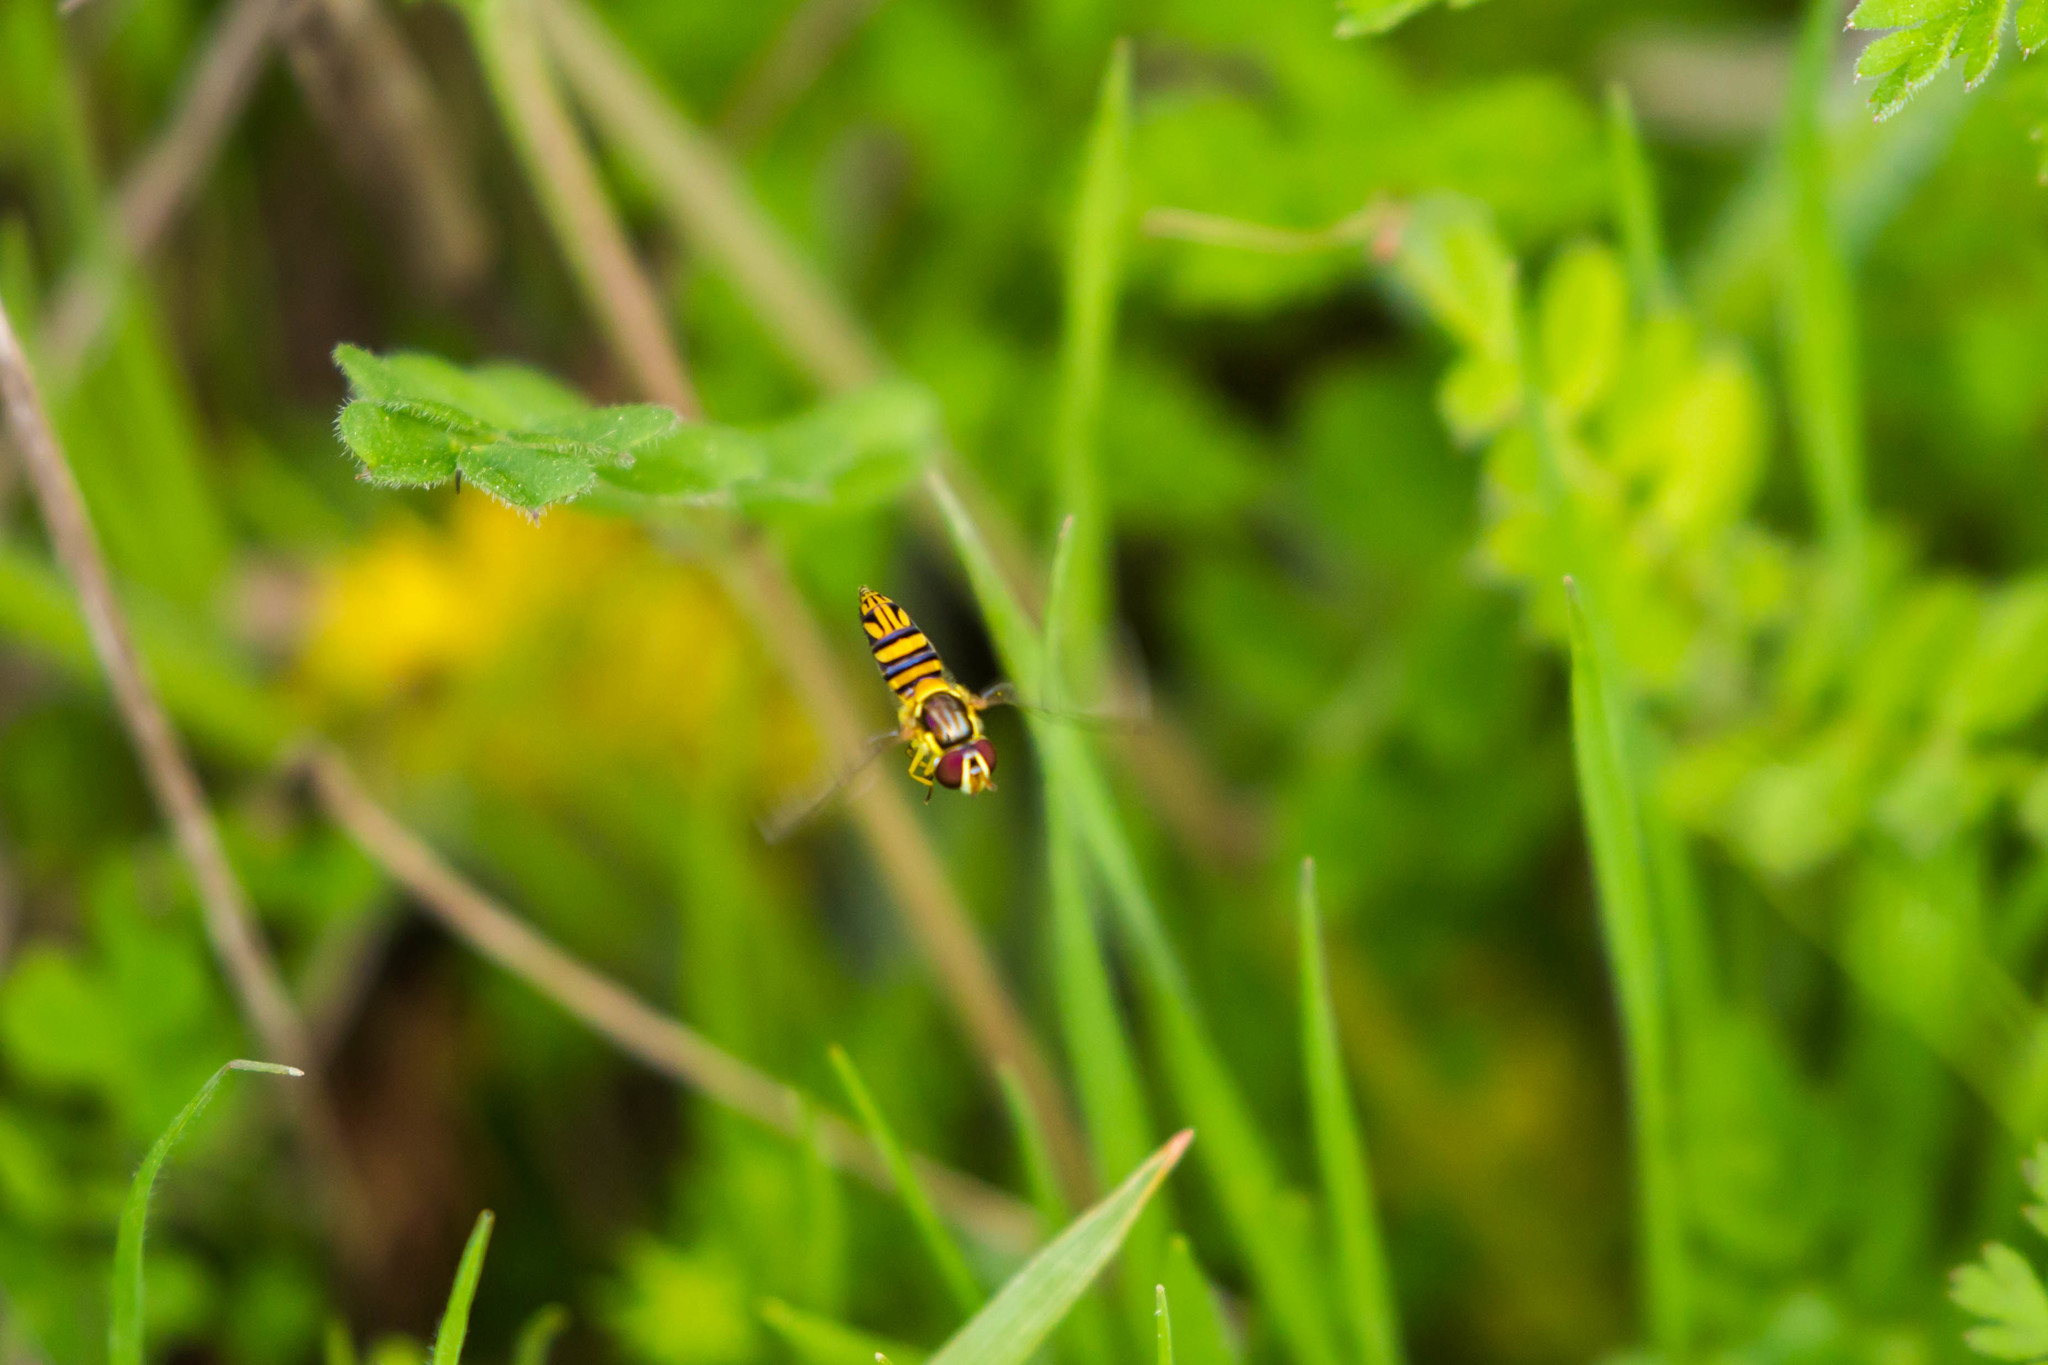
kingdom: Animalia
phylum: Arthropoda
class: Insecta
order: Diptera
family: Syrphidae
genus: Allograpta
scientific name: Allograpta obliqua
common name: Common oblique syrphid
